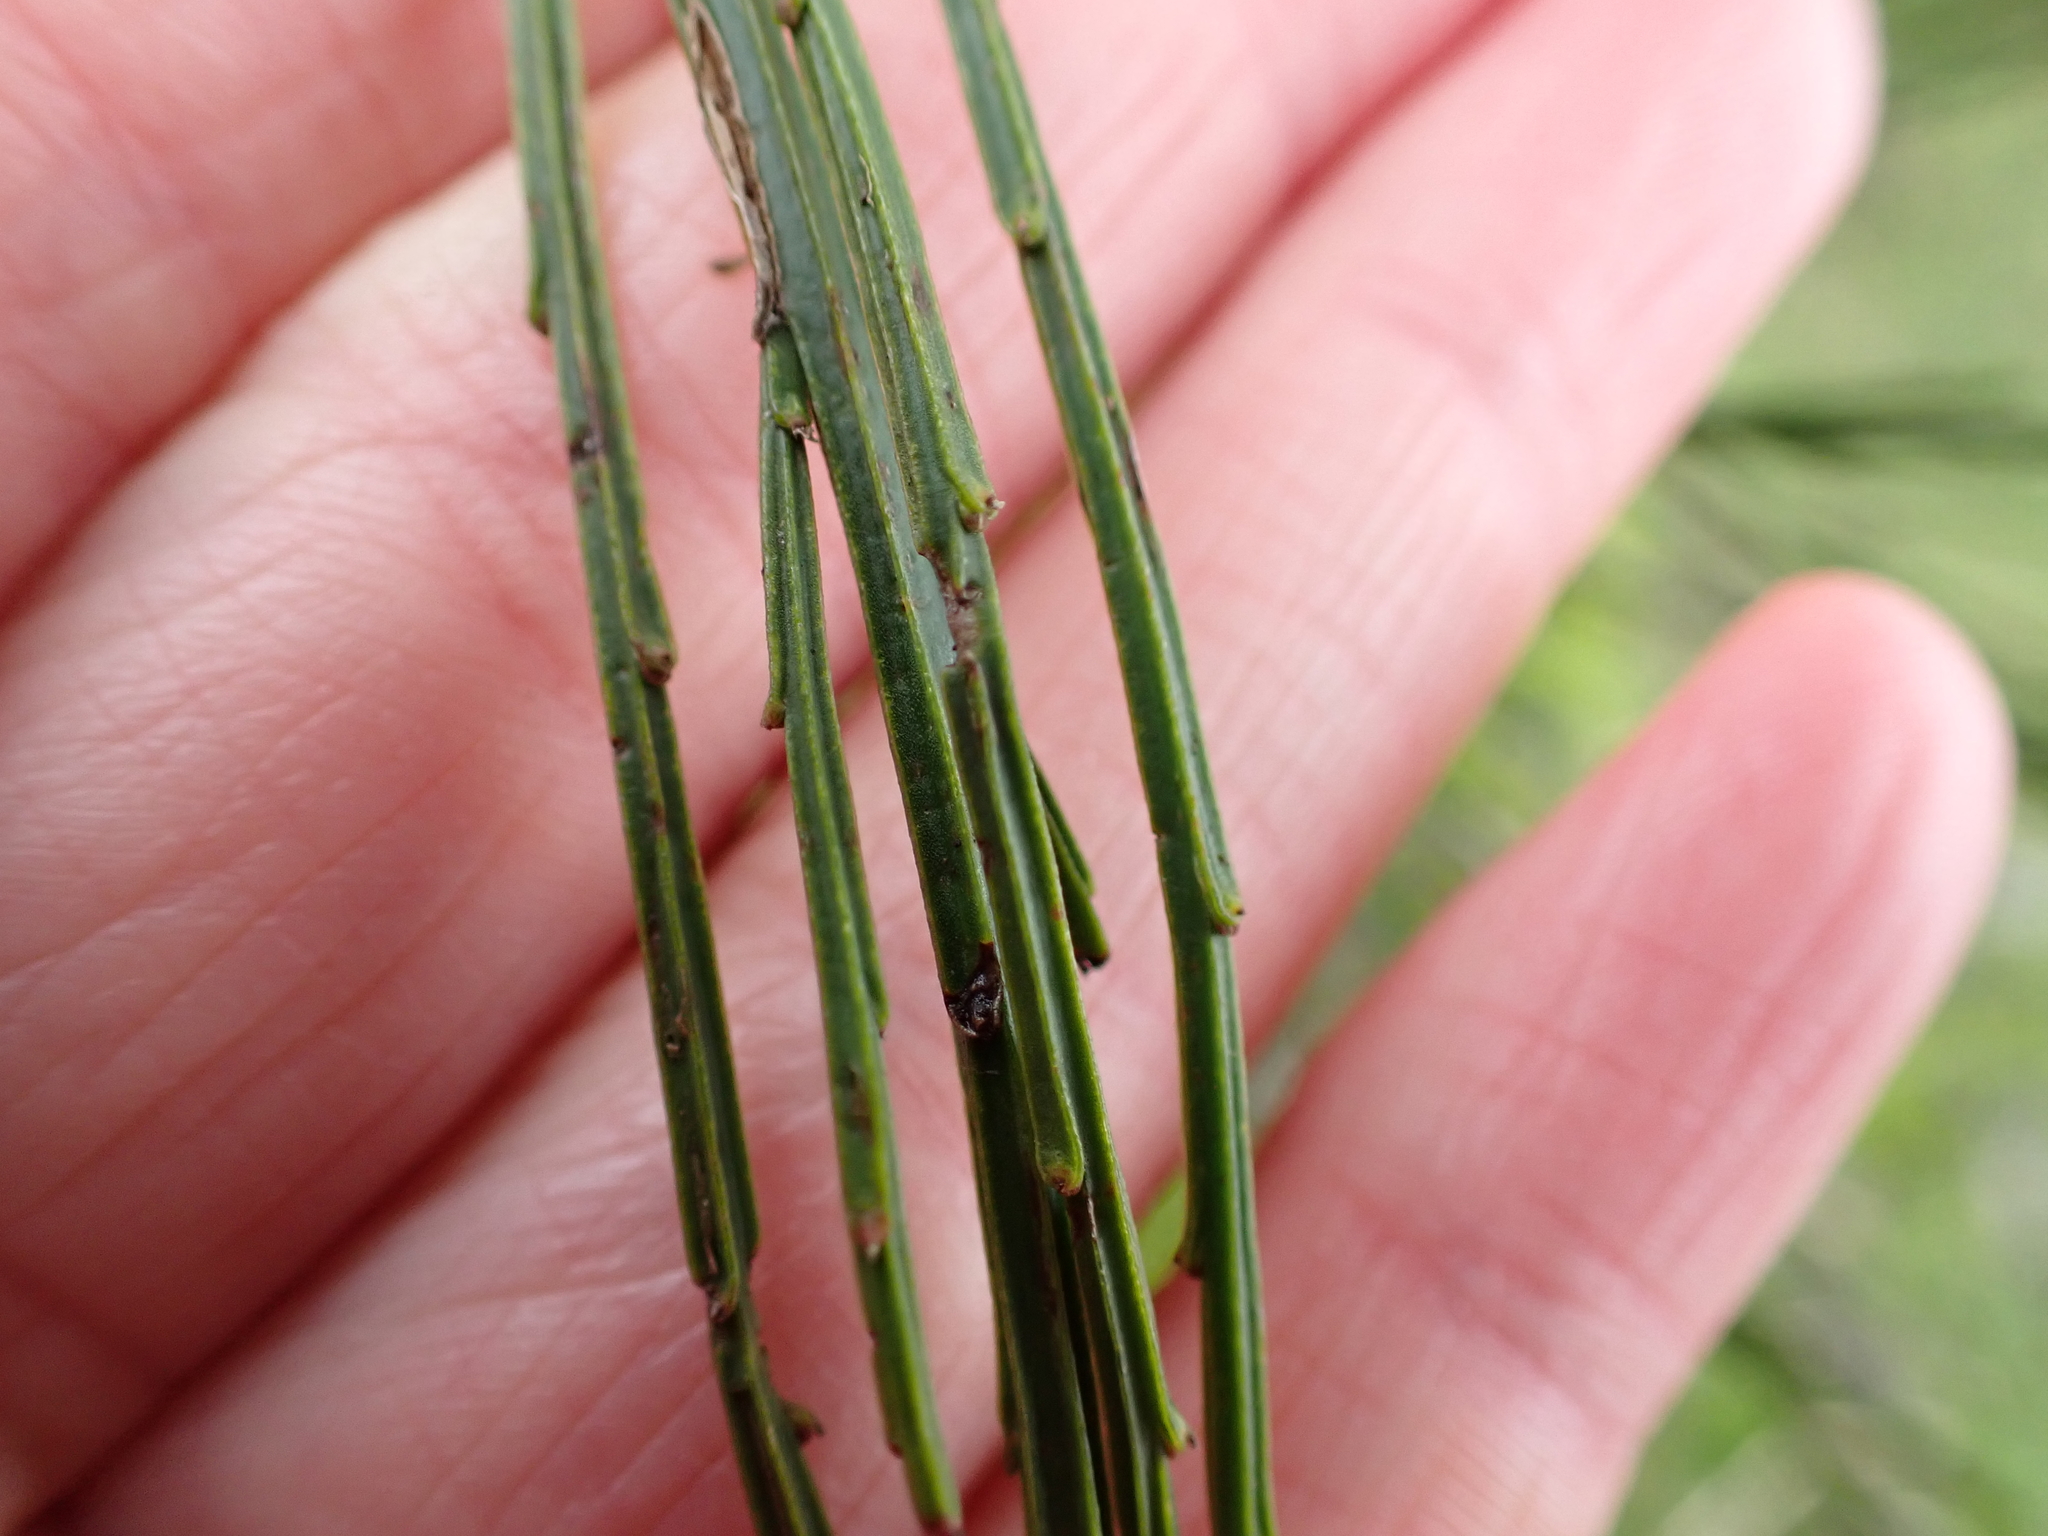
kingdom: Plantae
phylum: Tracheophyta
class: Magnoliopsida
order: Fabales
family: Fabaceae
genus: Cytisus
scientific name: Cytisus scoparius
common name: Scotch broom
